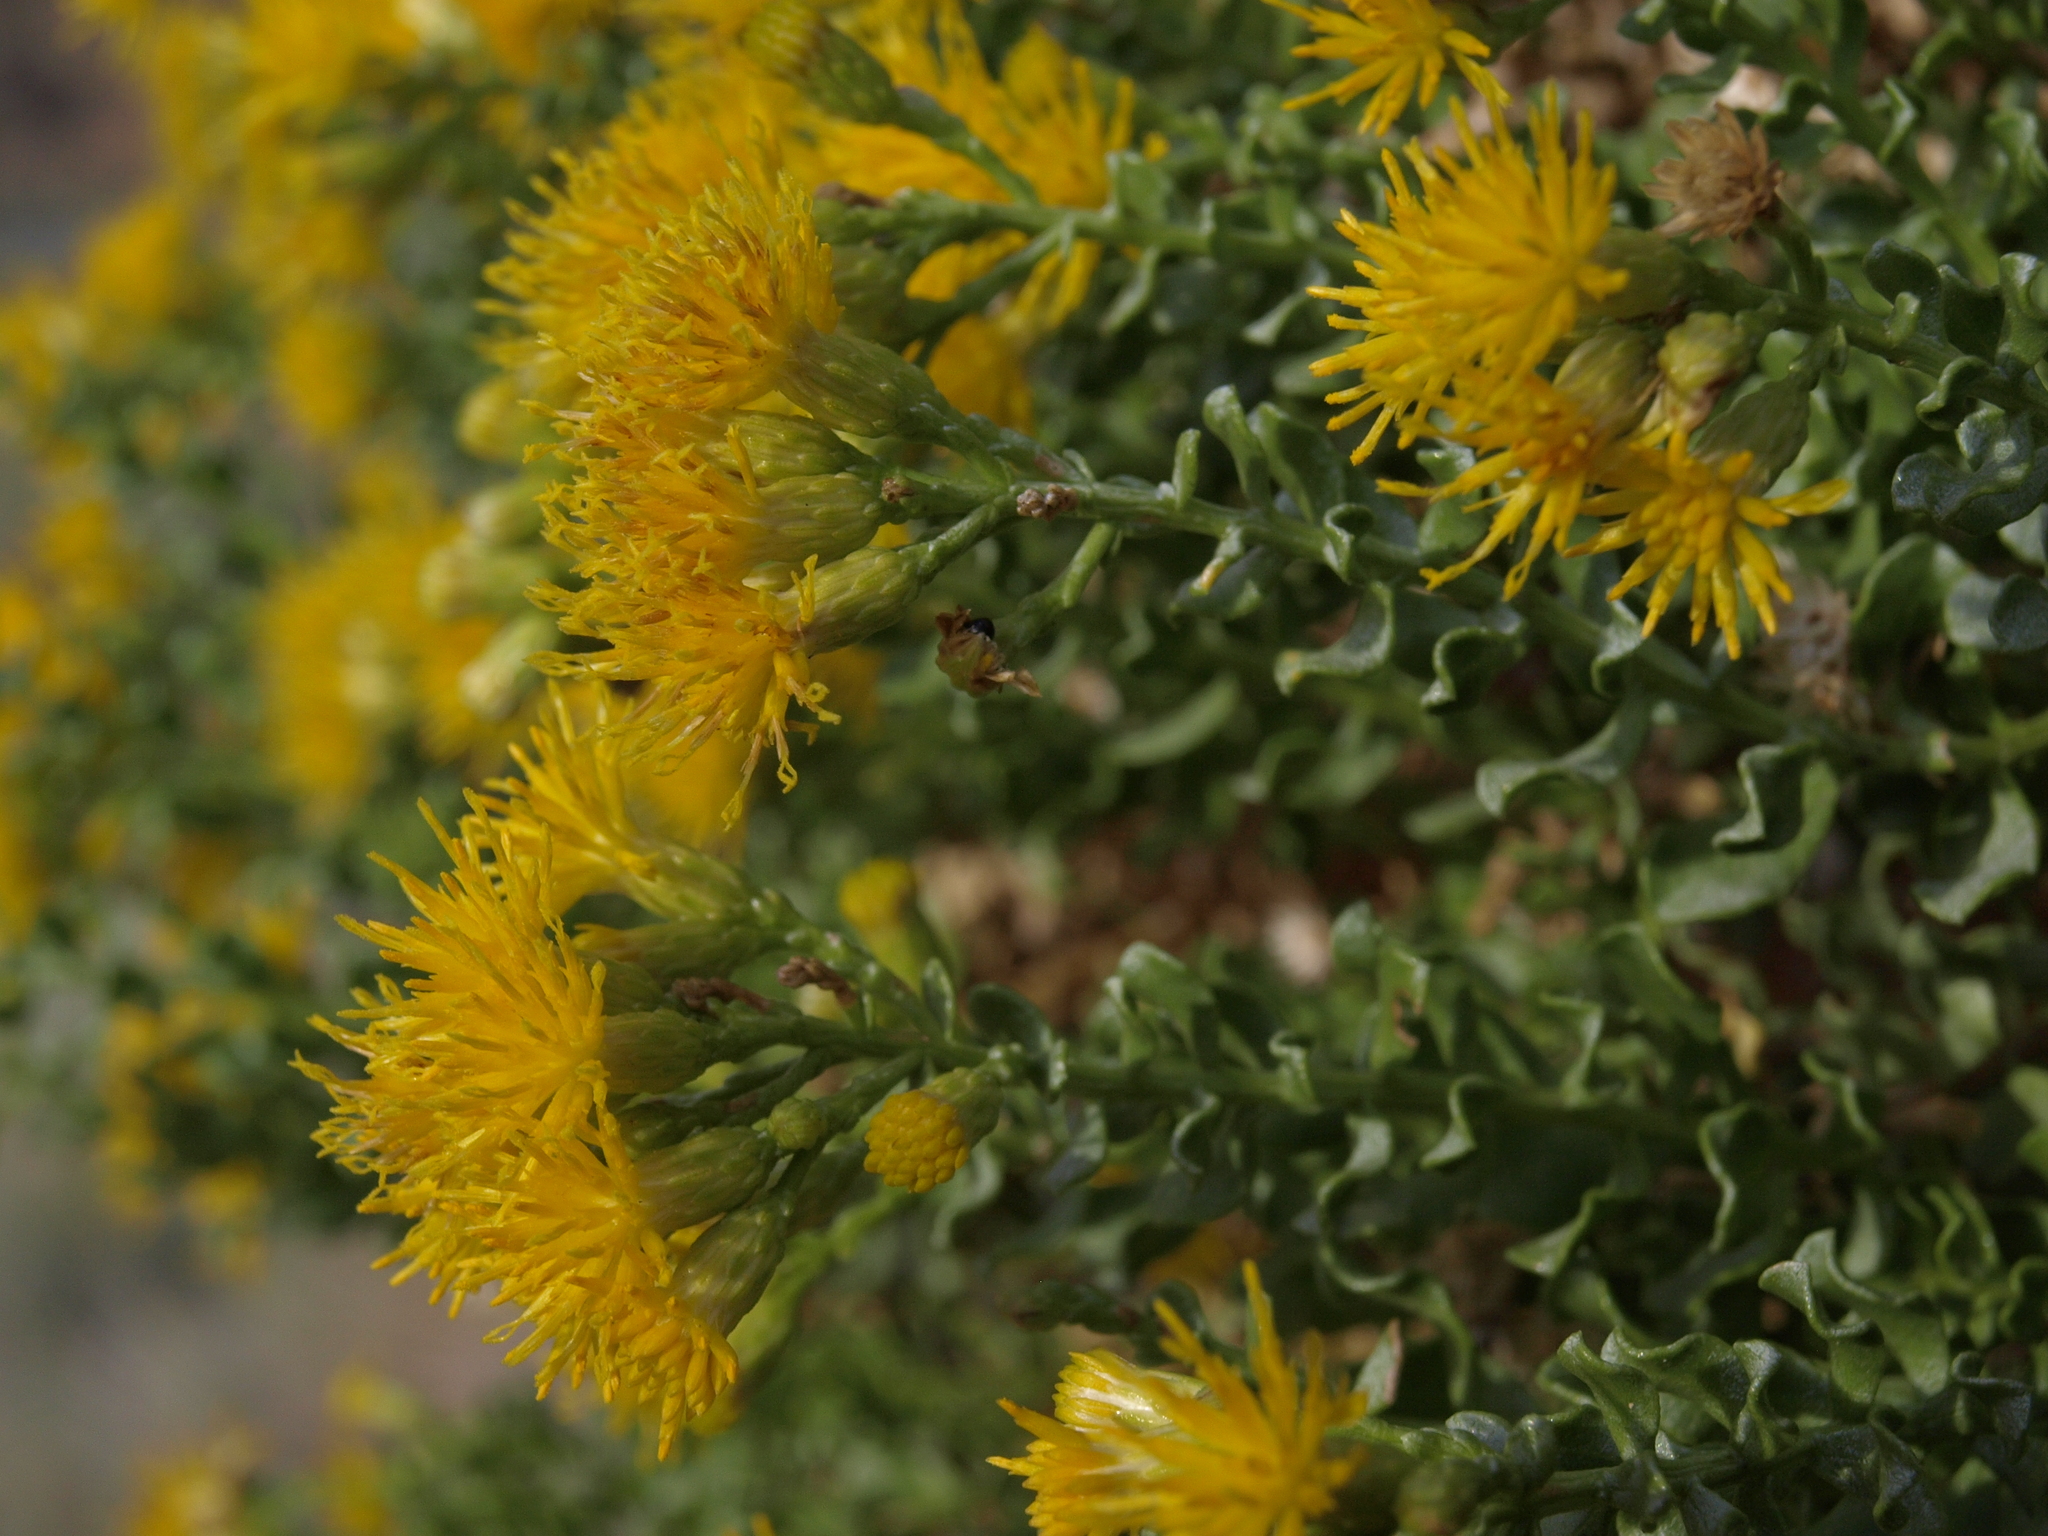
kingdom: Plantae
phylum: Tracheophyta
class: Magnoliopsida
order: Asterales
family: Asteraceae
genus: Ericameria
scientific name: Ericameria cuneata
